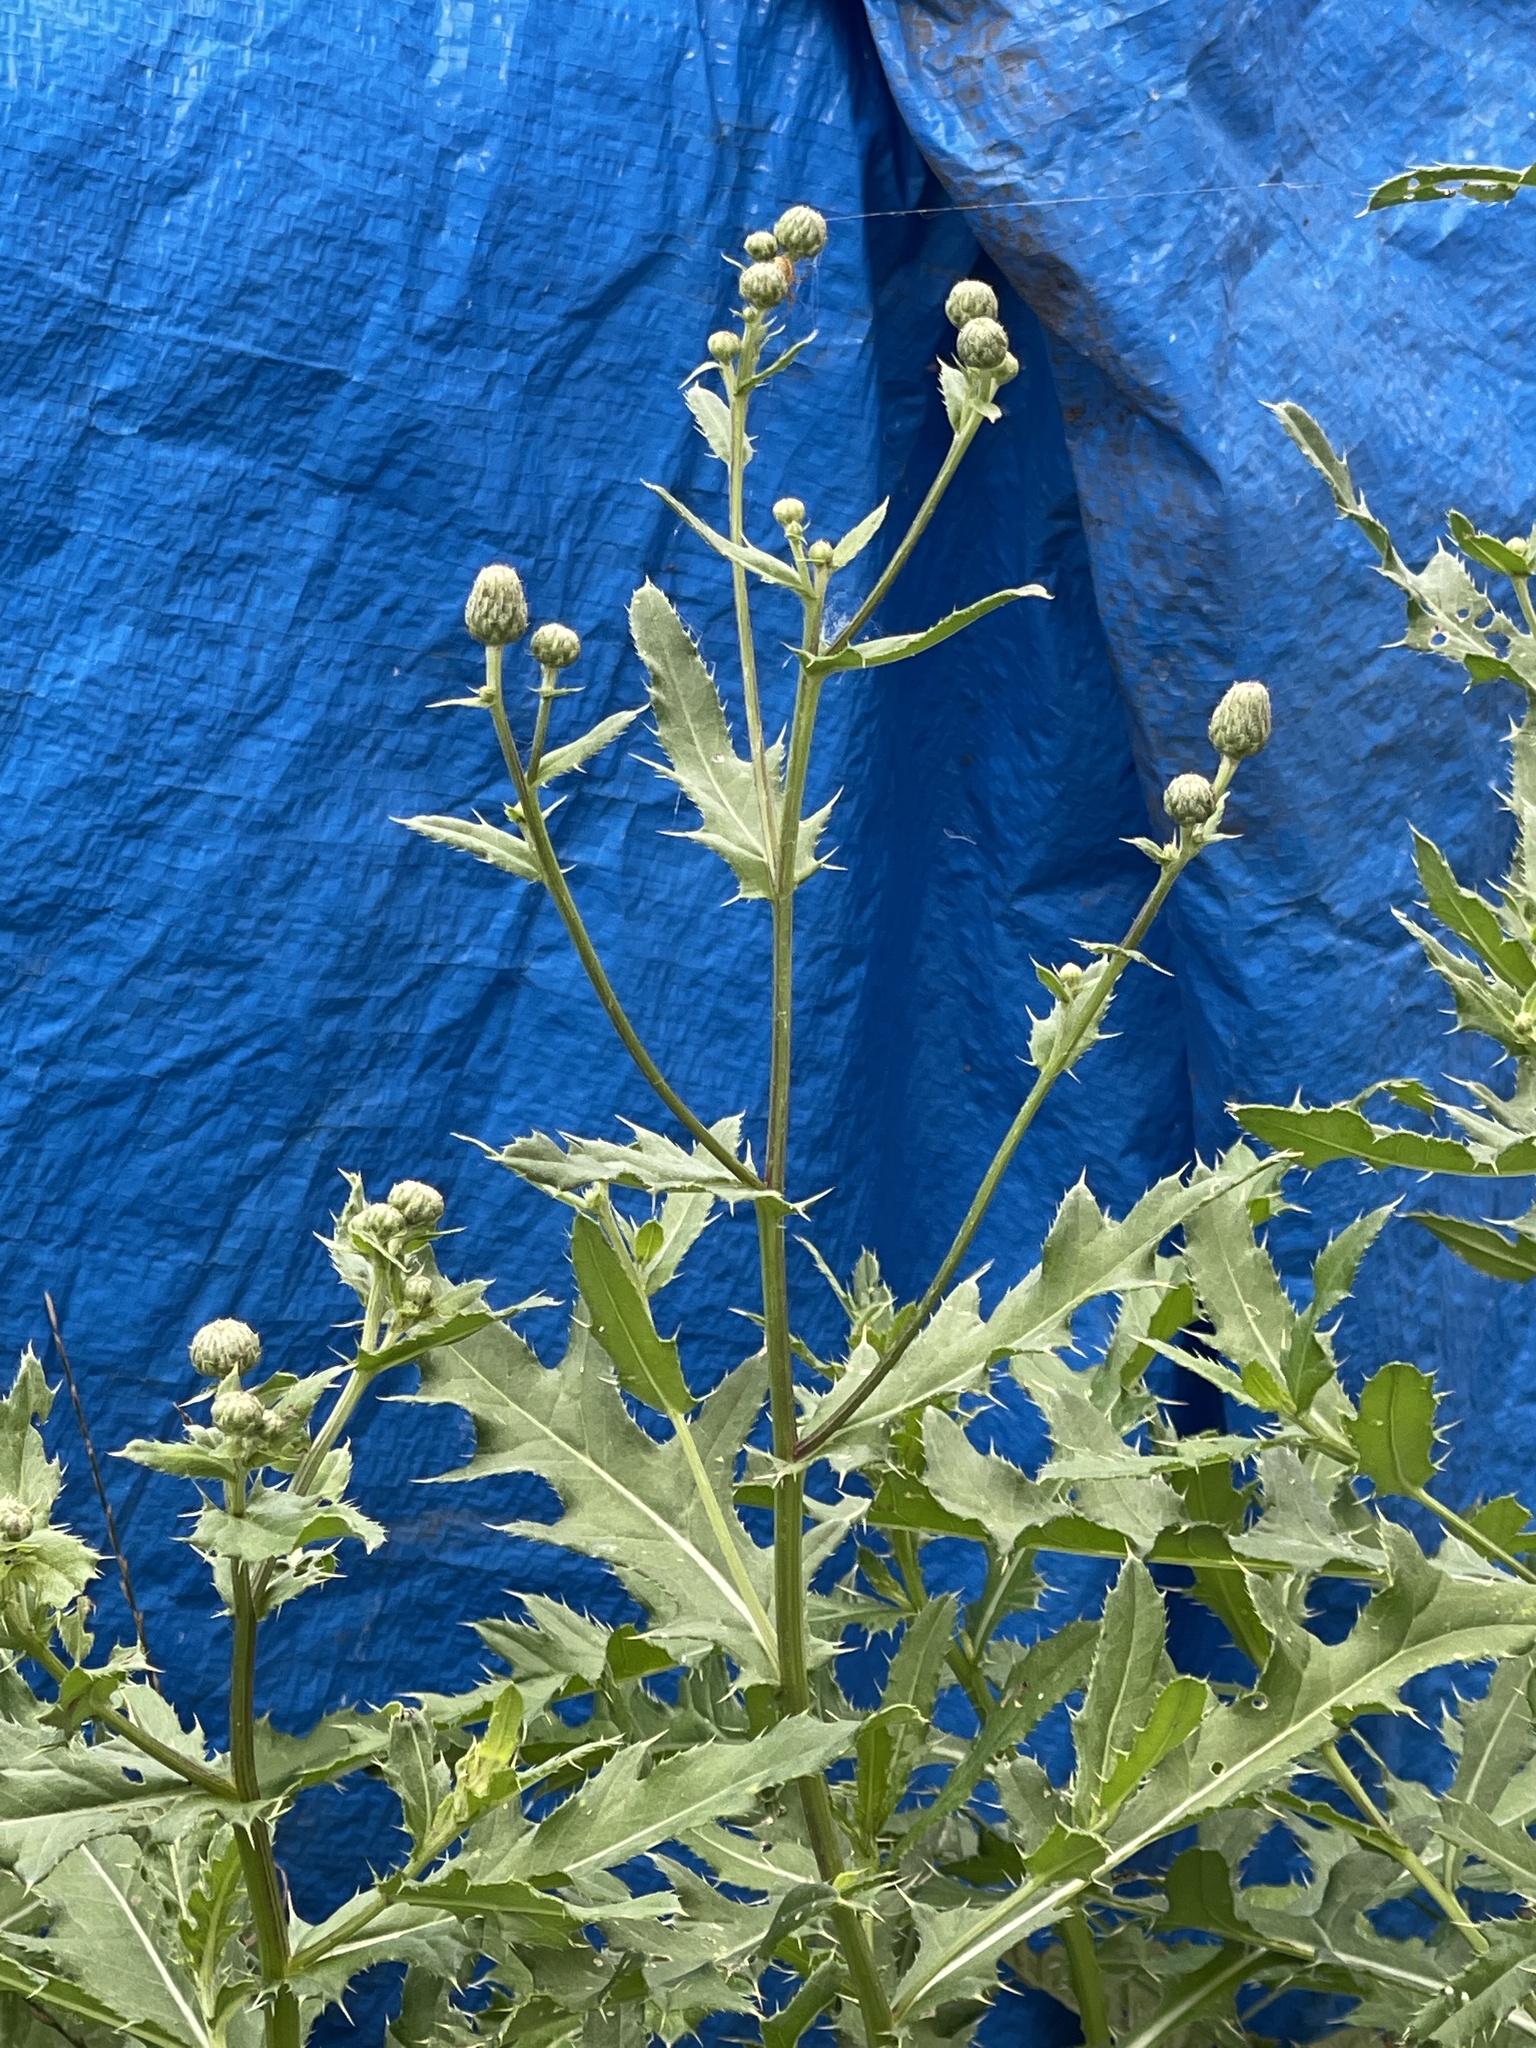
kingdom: Plantae
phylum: Tracheophyta
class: Magnoliopsida
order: Asterales
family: Asteraceae
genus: Cirsium
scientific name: Cirsium arvense
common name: Creeping thistle
